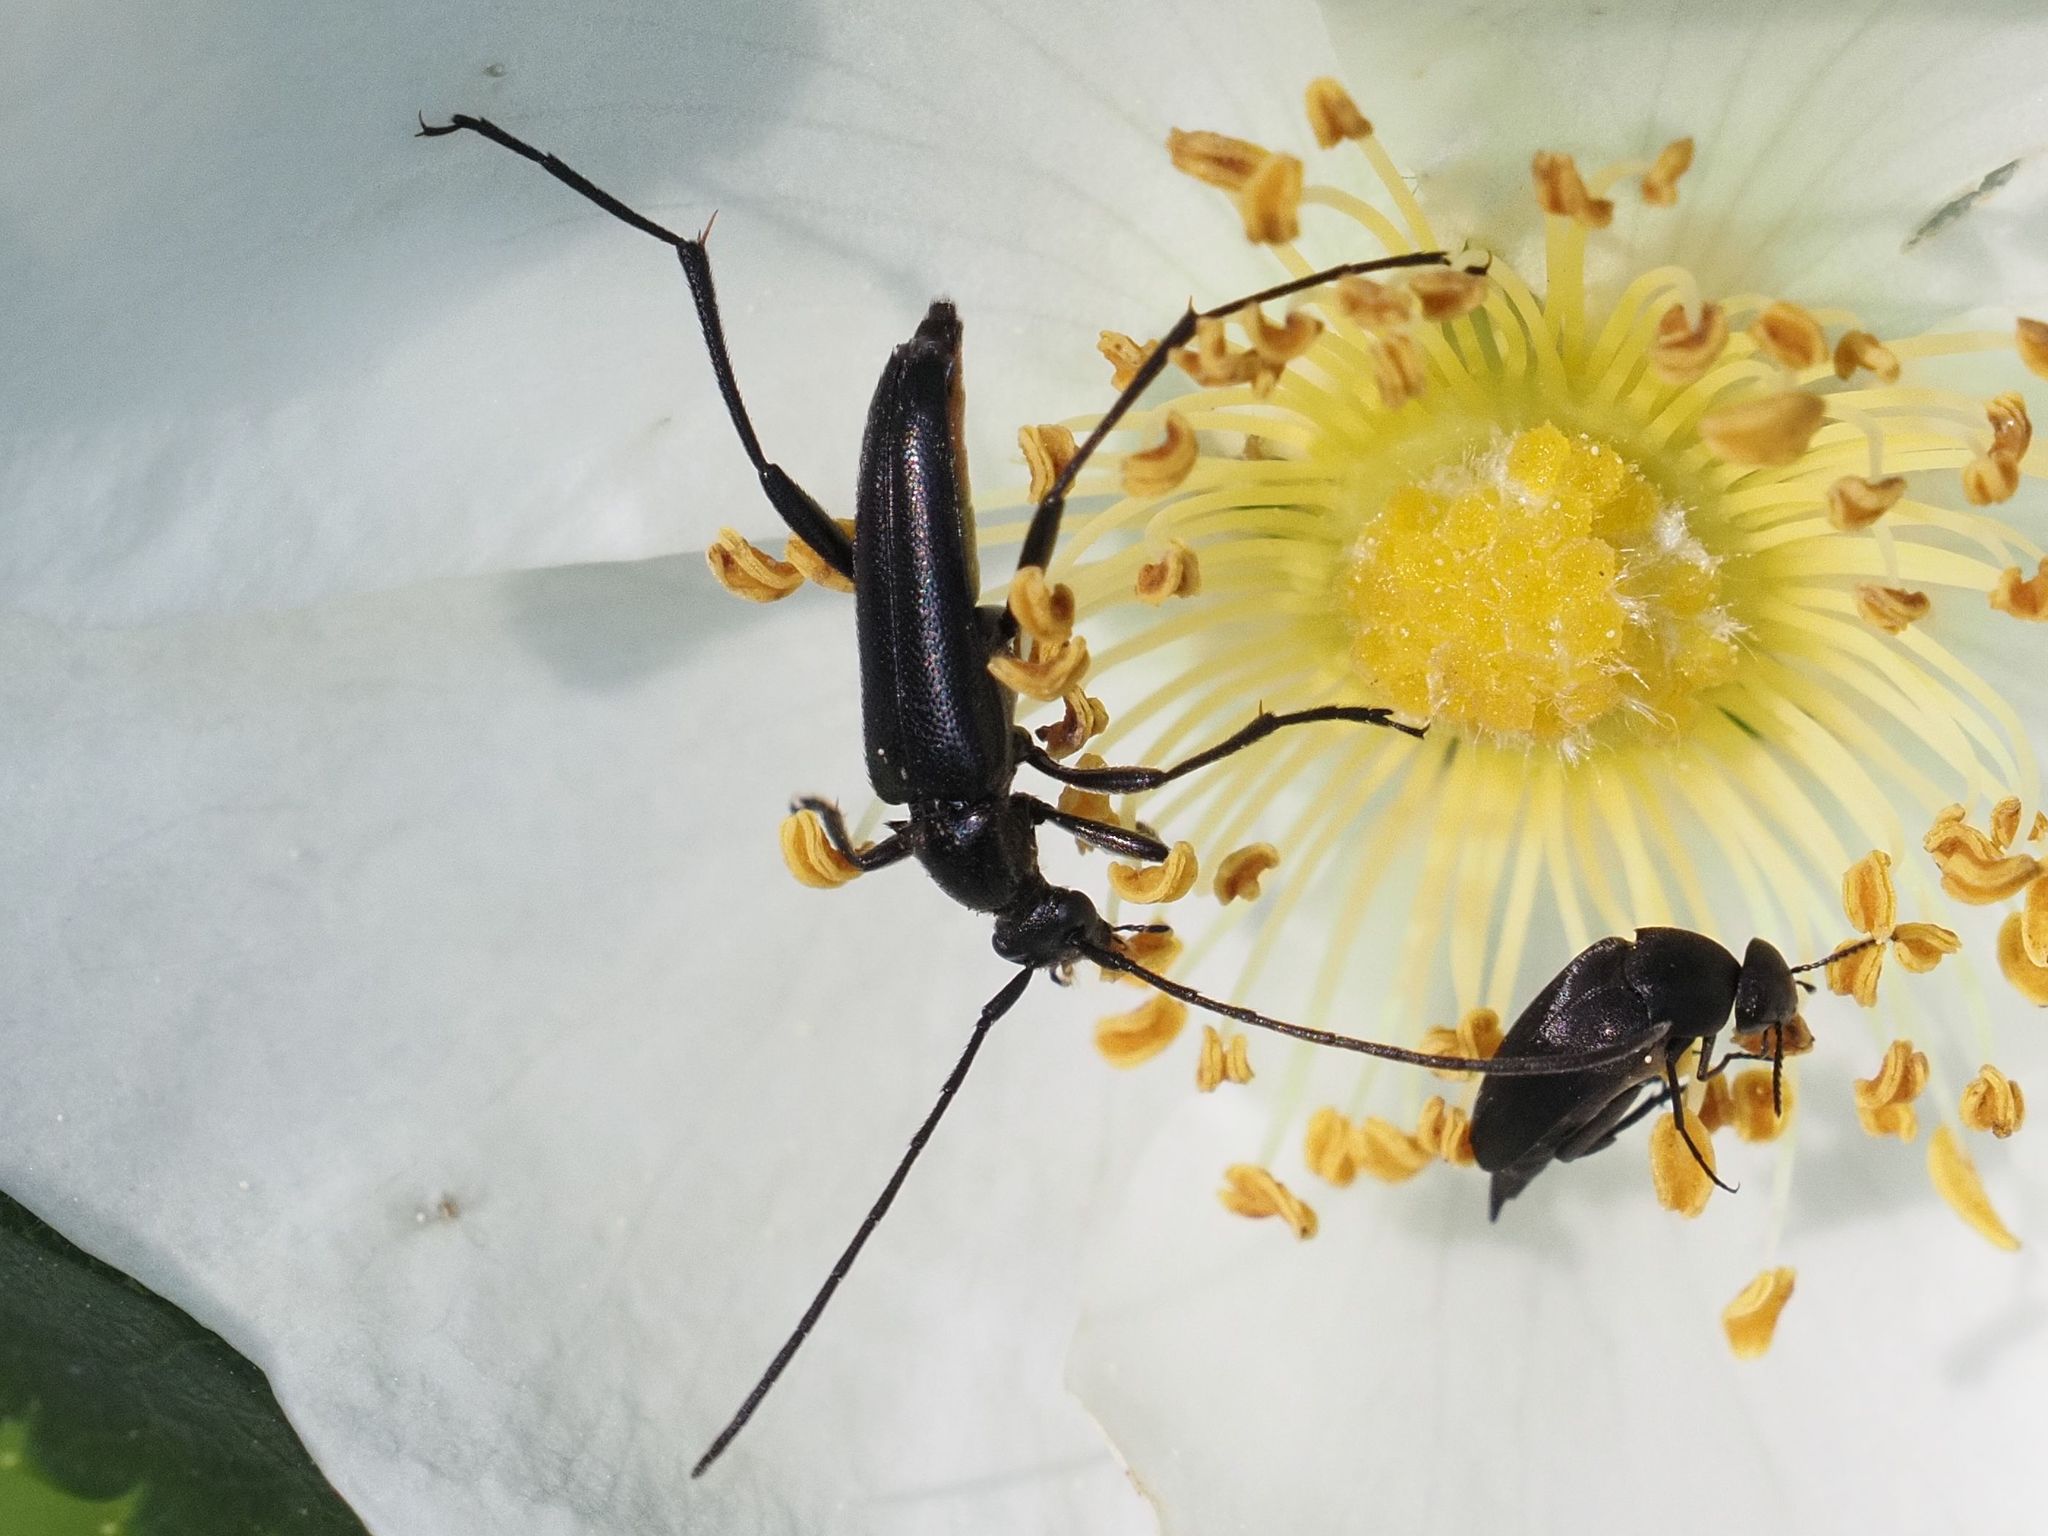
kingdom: Animalia
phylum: Arthropoda
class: Insecta
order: Coleoptera
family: Cerambycidae
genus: Stenurella
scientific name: Stenurella nigra
